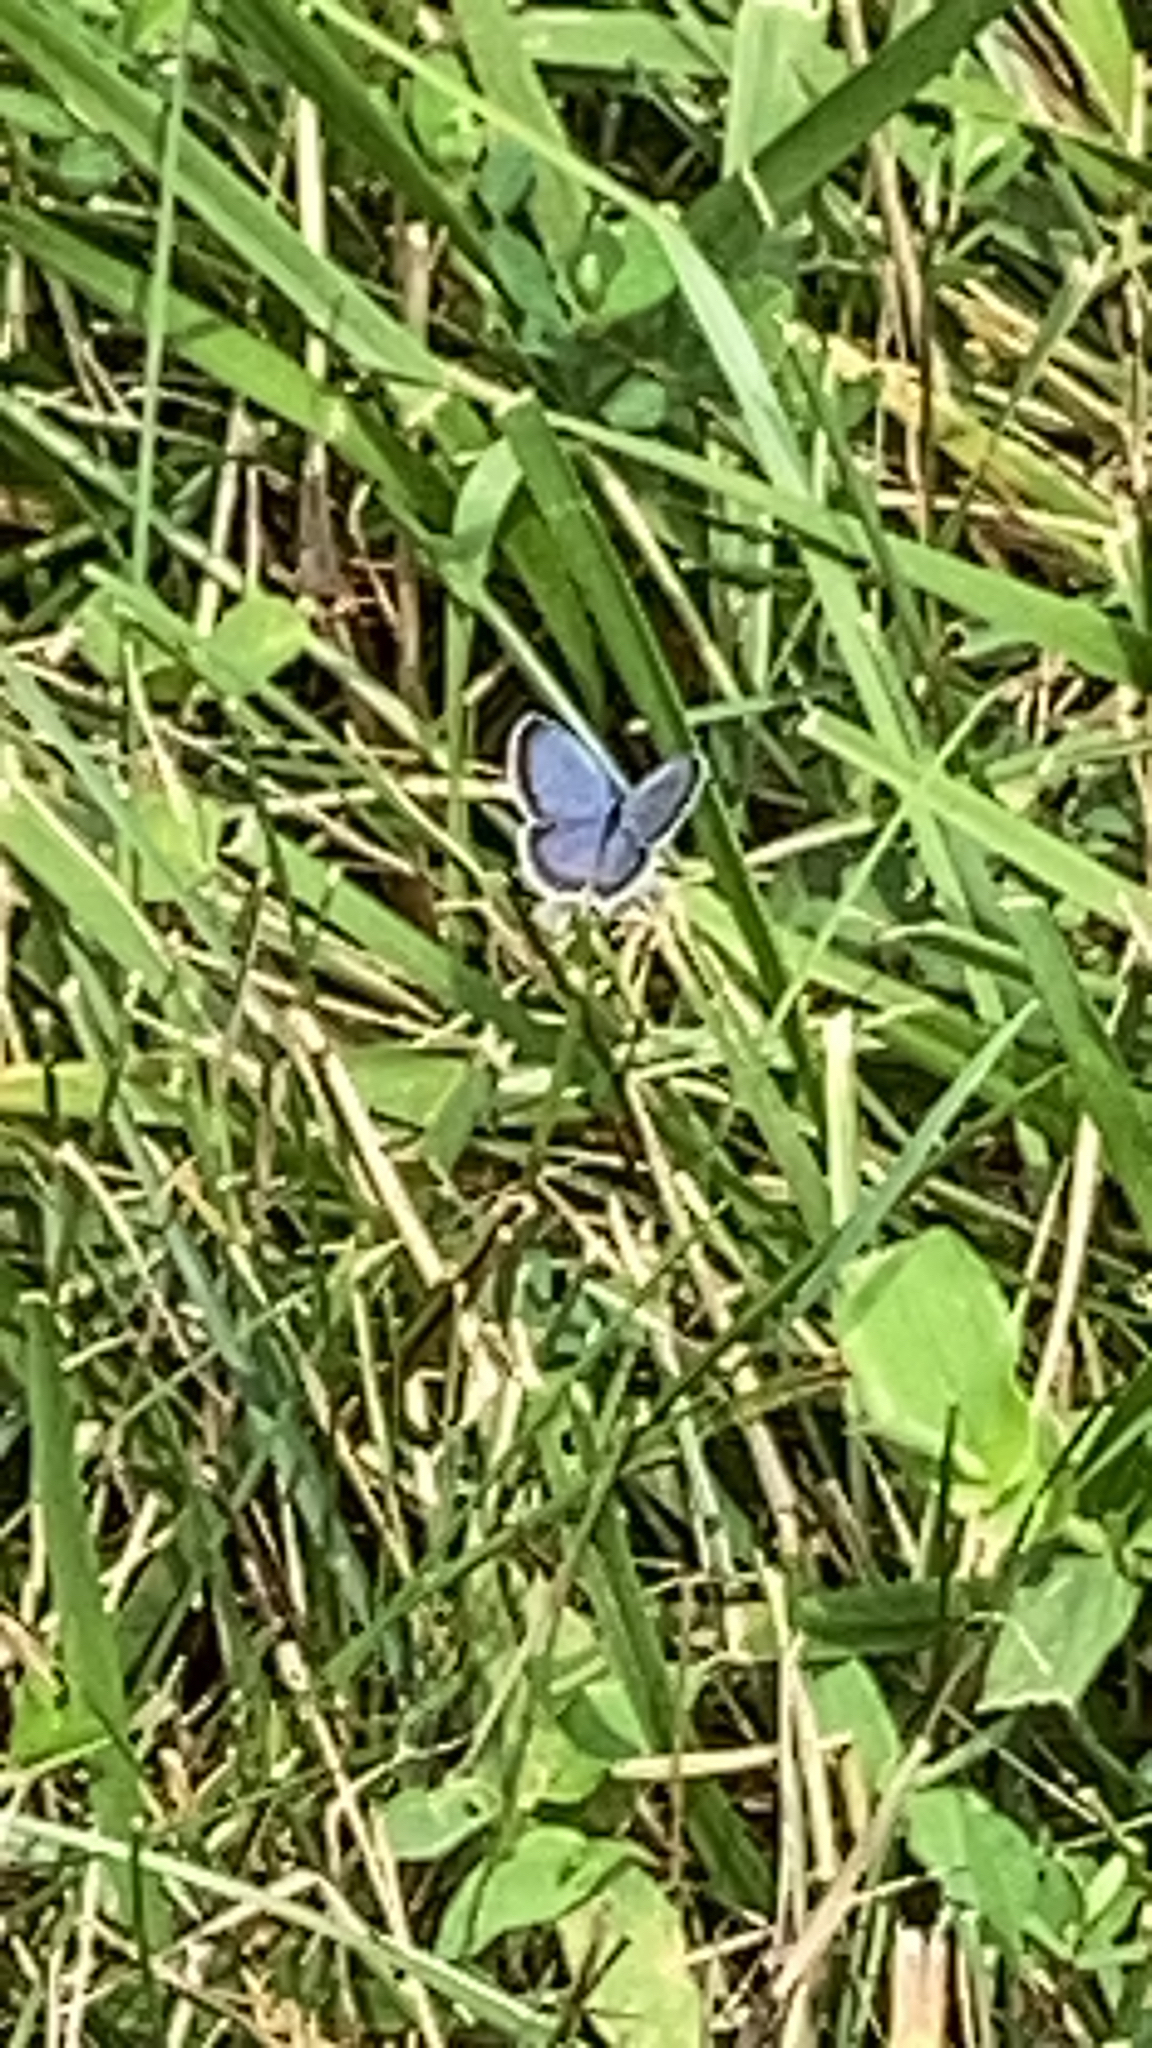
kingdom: Animalia
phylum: Arthropoda
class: Insecta
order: Lepidoptera
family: Lycaenidae
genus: Elkalyce
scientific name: Elkalyce comyntas
